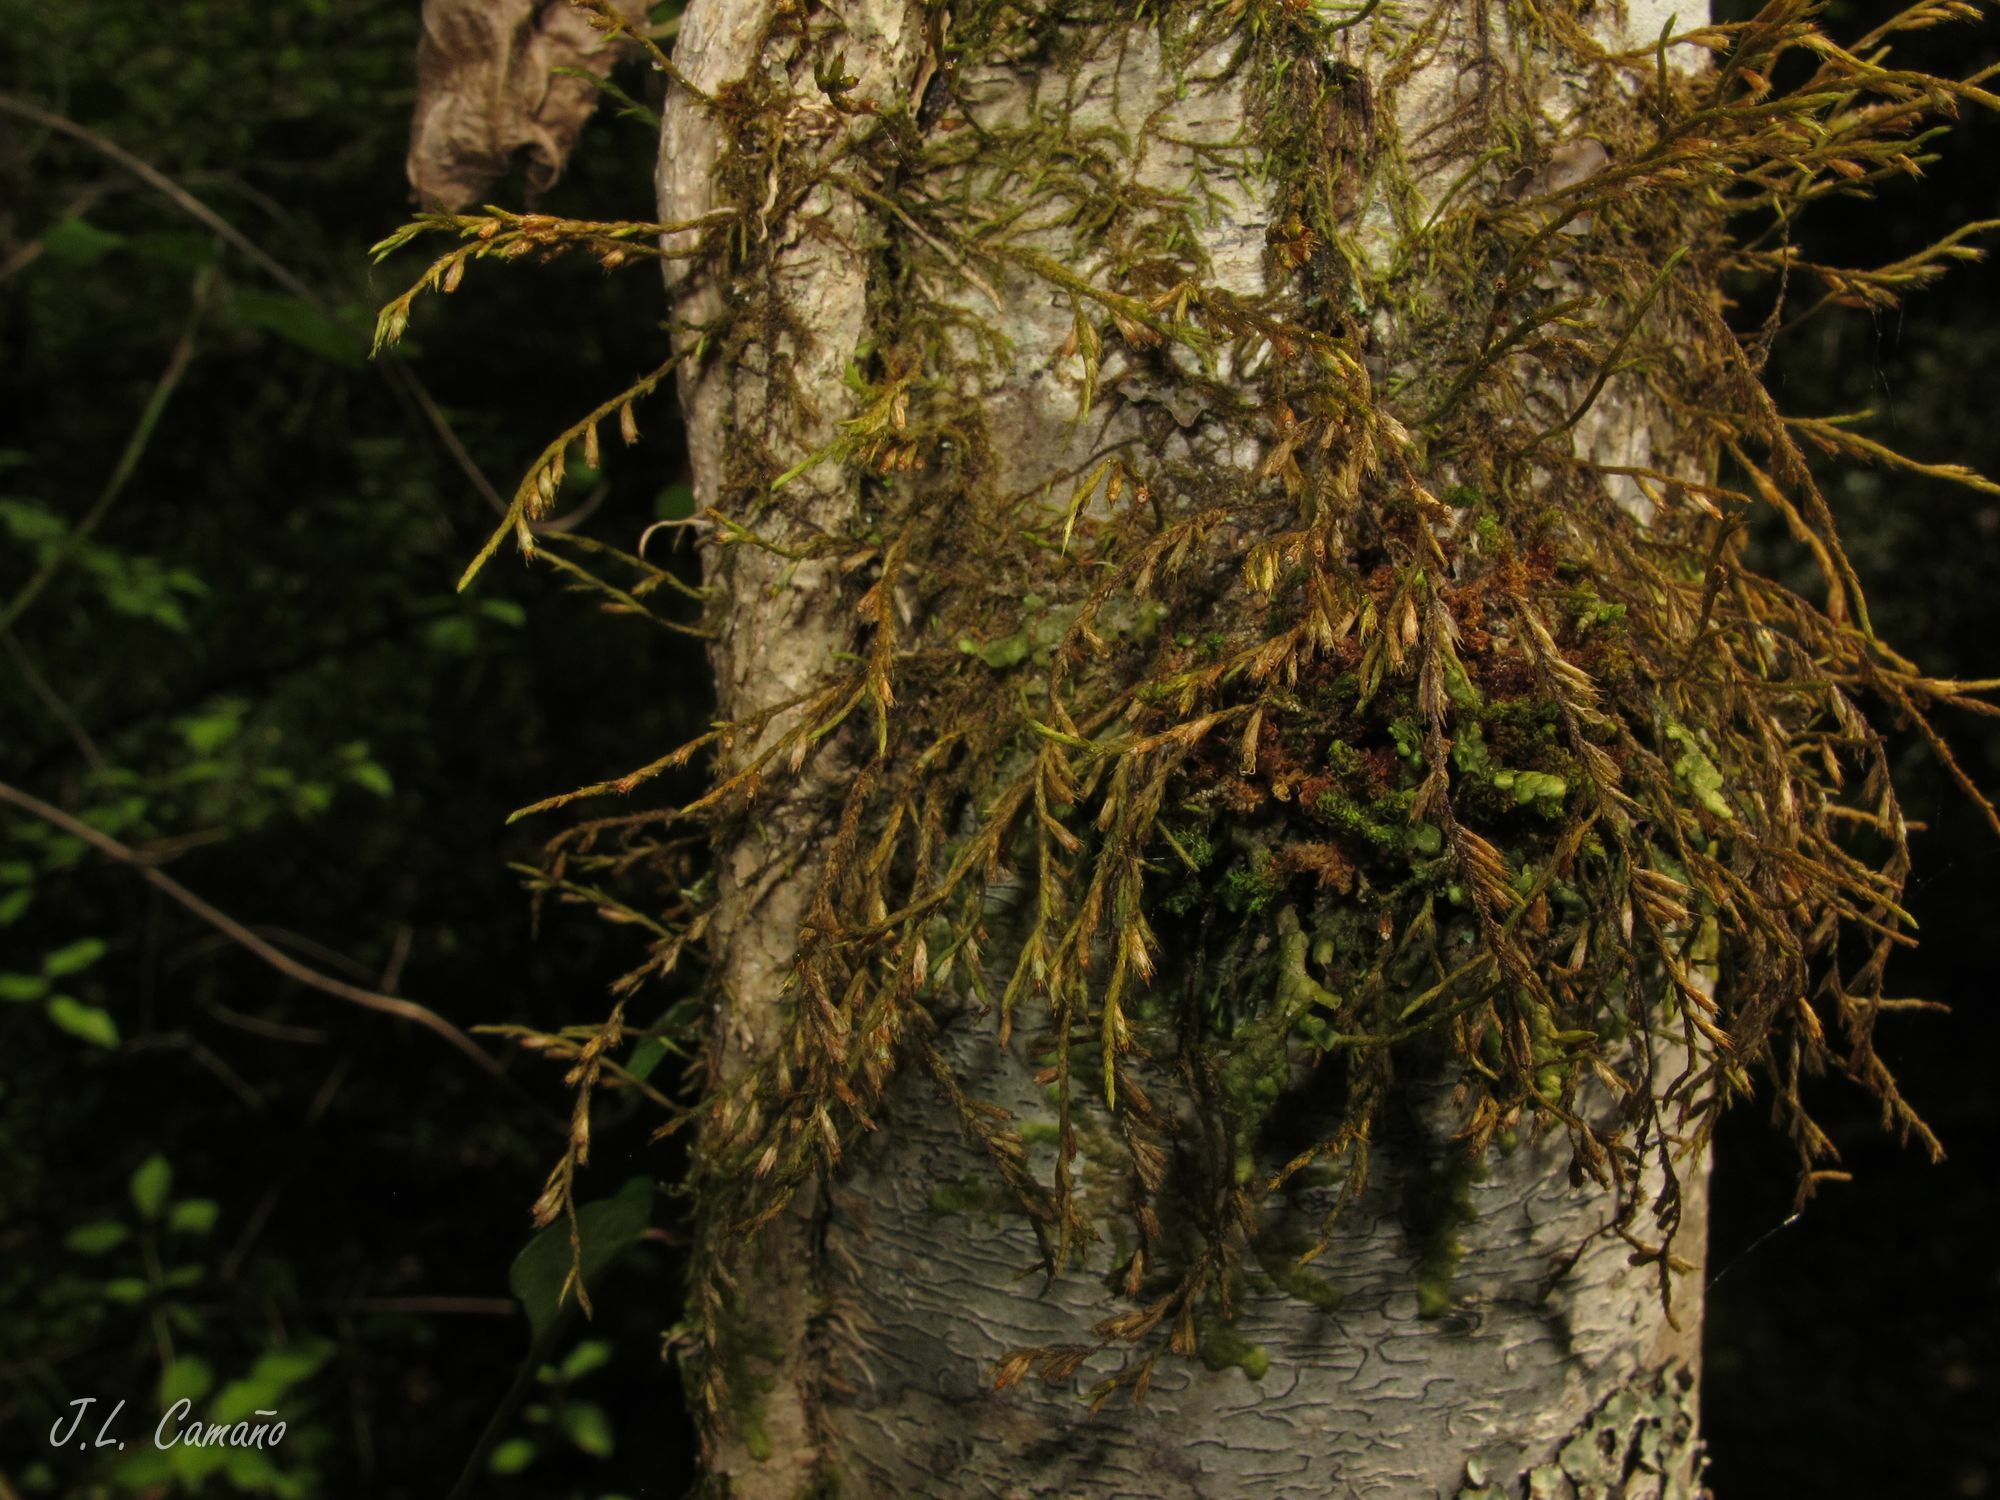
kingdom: Plantae
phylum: Bryophyta
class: Bryopsida
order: Hypnales
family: Cryphaeaceae
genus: Cryphaea
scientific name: Cryphaea heteromalla
